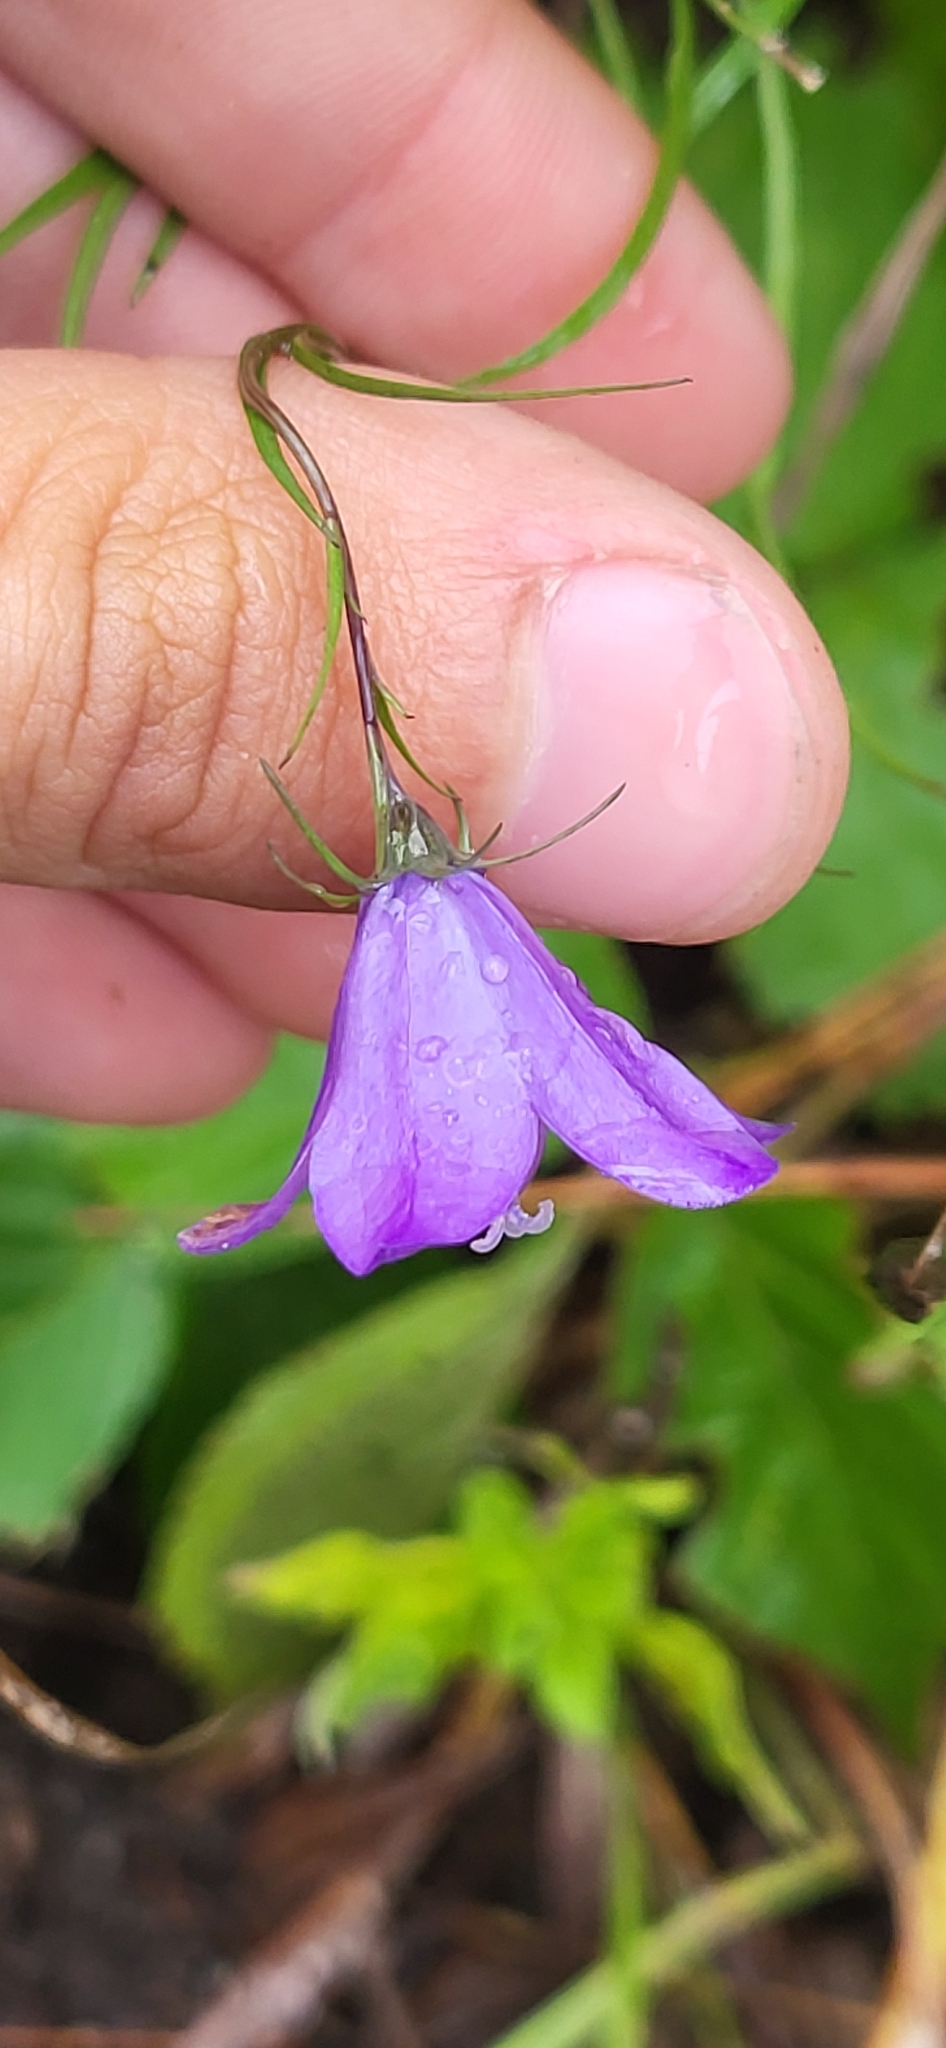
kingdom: Plantae
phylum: Tracheophyta
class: Magnoliopsida
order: Asterales
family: Campanulaceae
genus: Campanula
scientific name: Campanula intercedens
